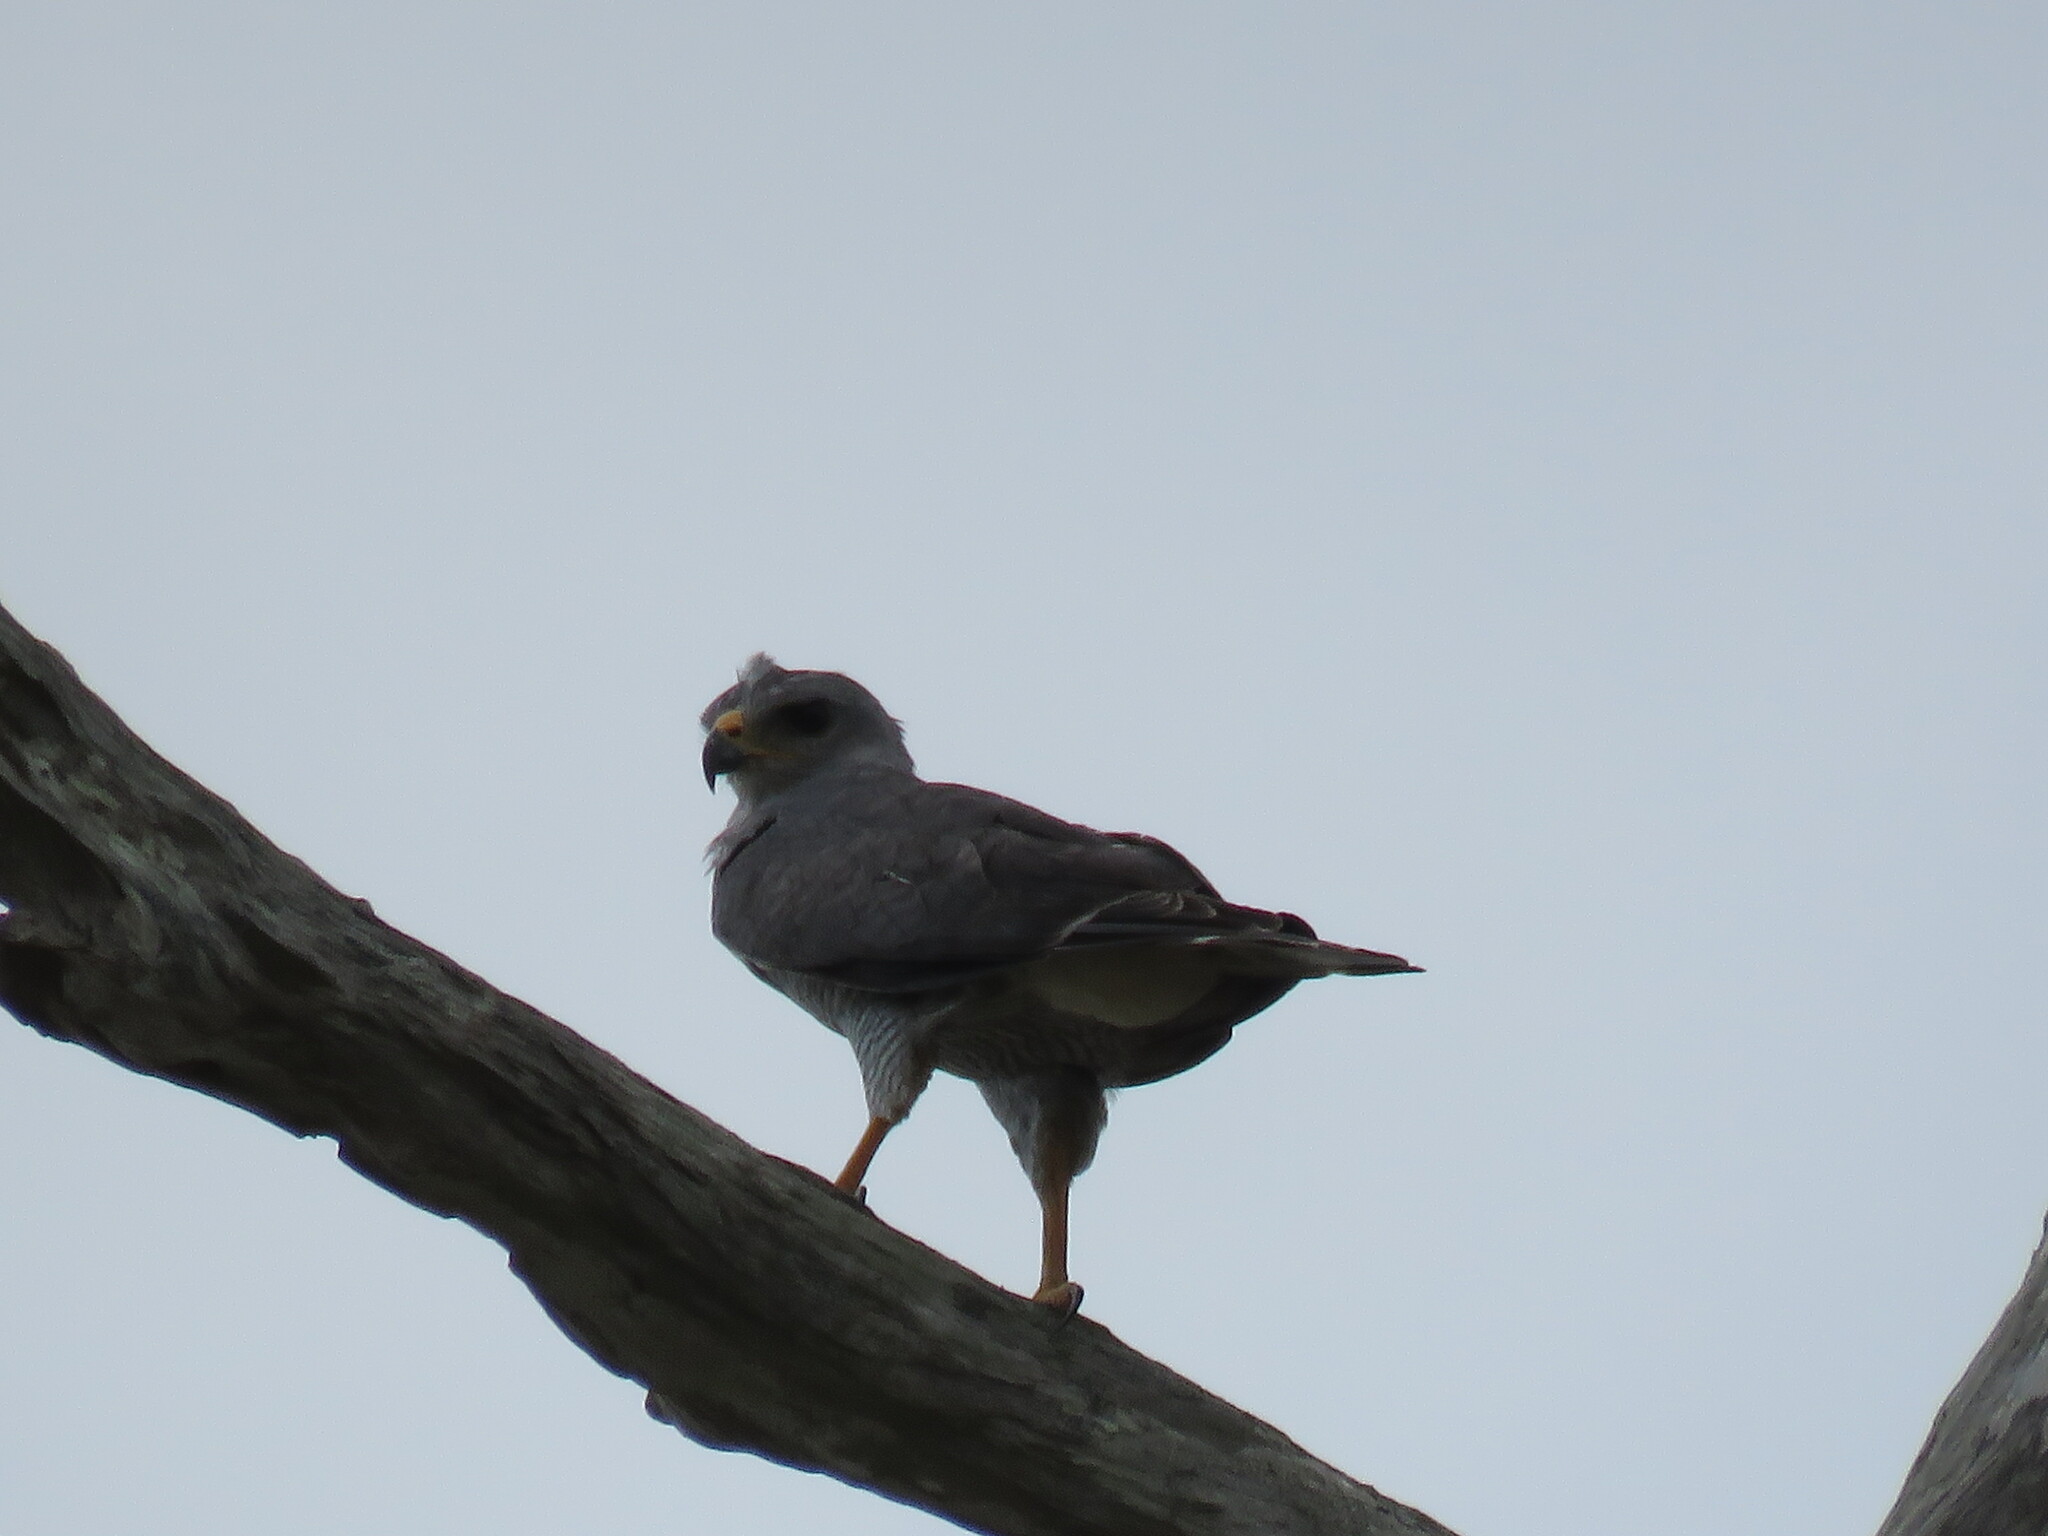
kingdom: Animalia
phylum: Chordata
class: Aves
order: Accipitriformes
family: Accipitridae
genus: Buteo
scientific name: Buteo nitidus
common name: Grey-lined hawk
